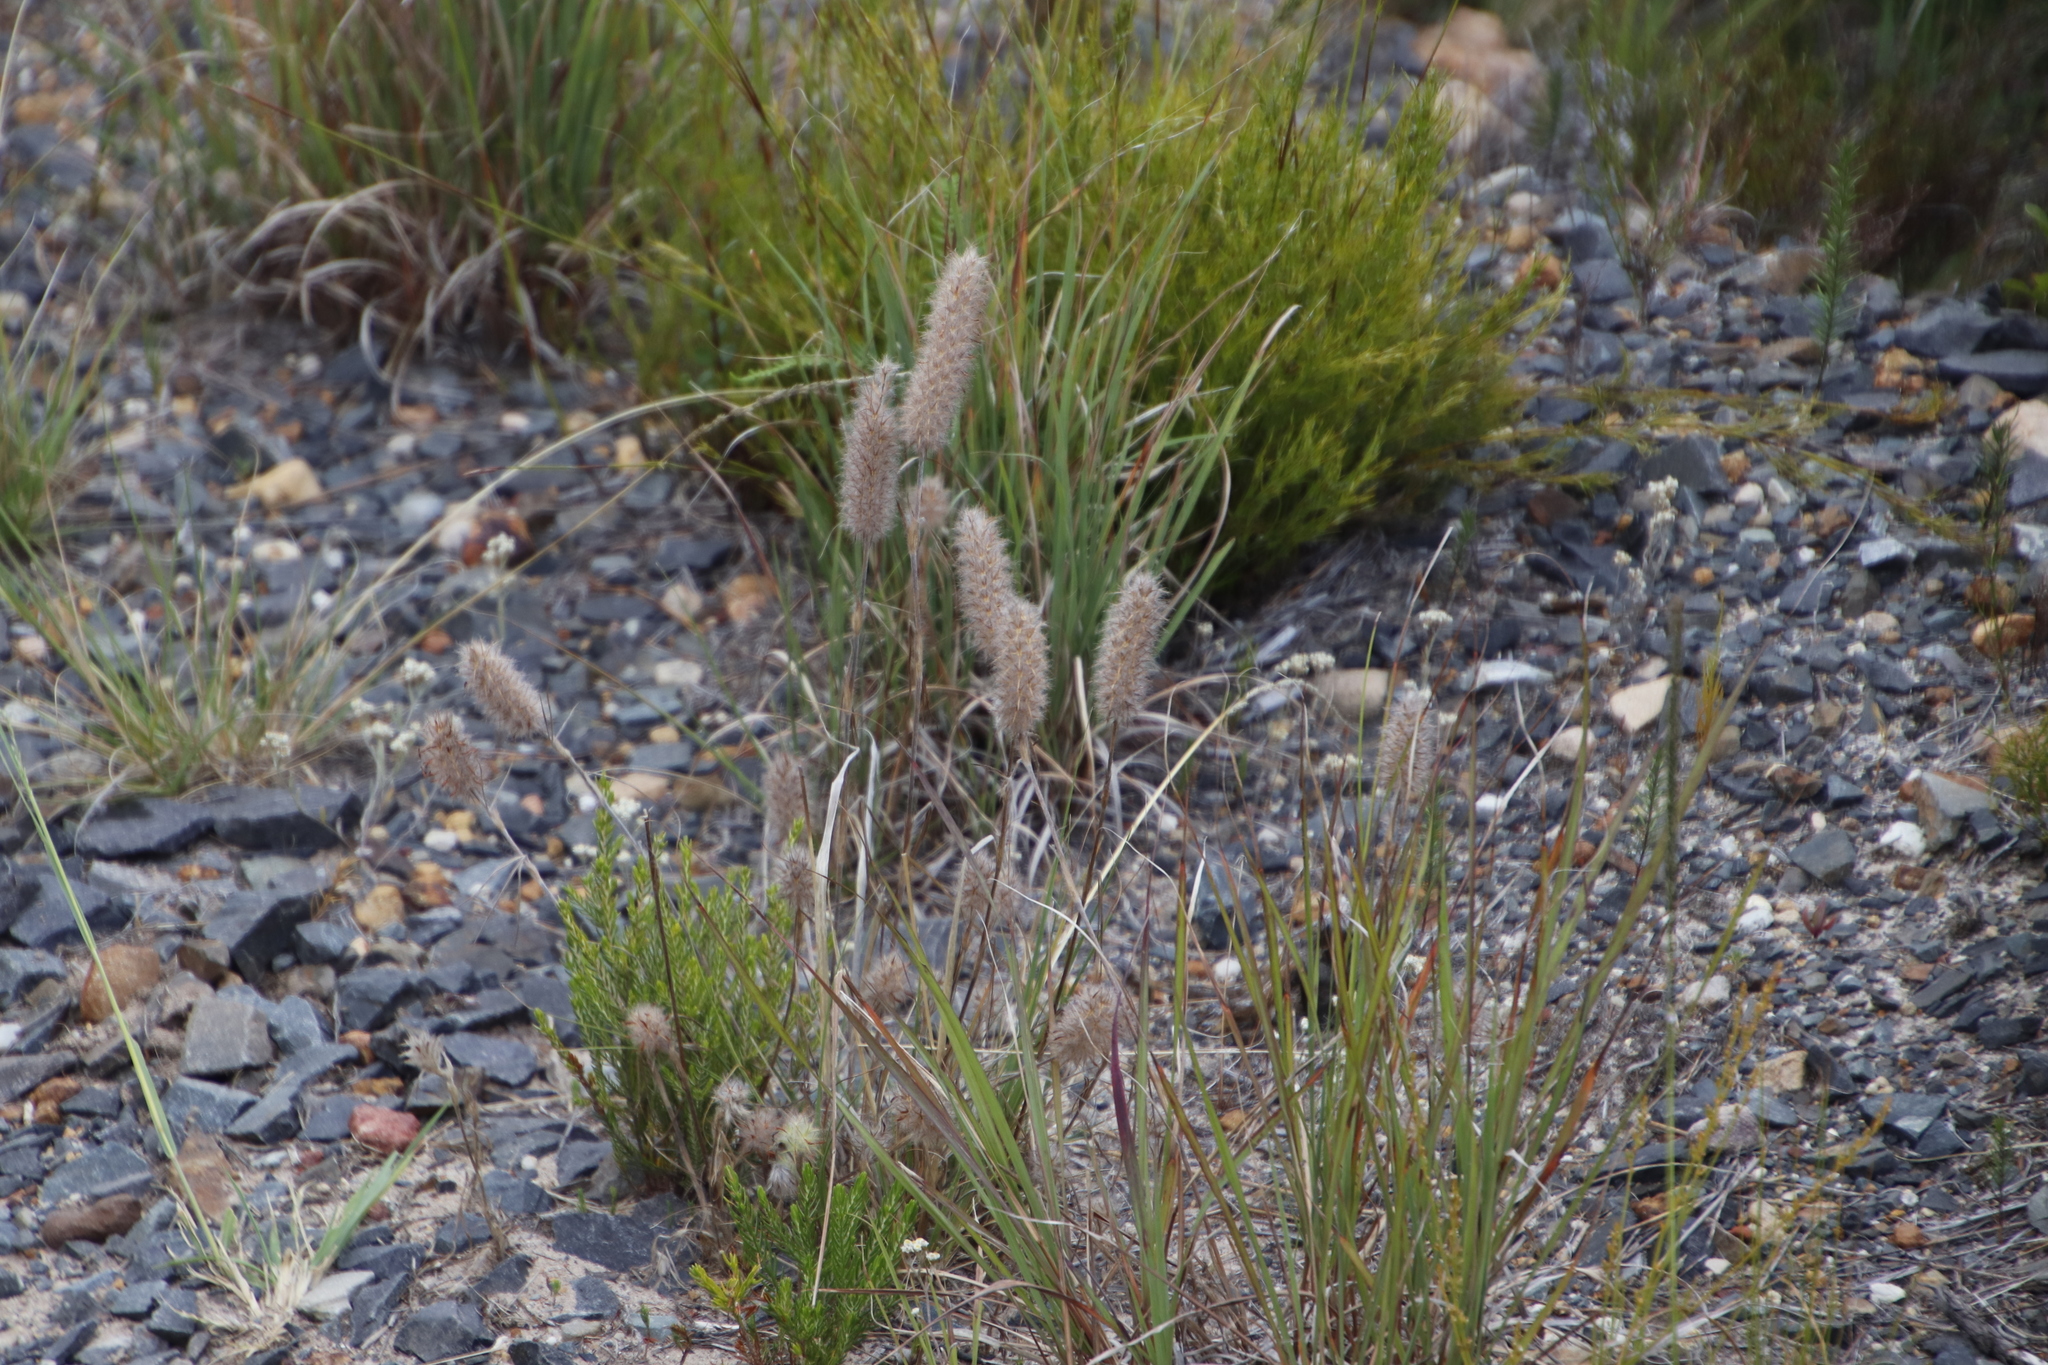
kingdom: Plantae
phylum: Tracheophyta
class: Magnoliopsida
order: Fabales
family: Fabaceae
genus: Trifolium
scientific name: Trifolium angustifolium
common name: Narrow clover
